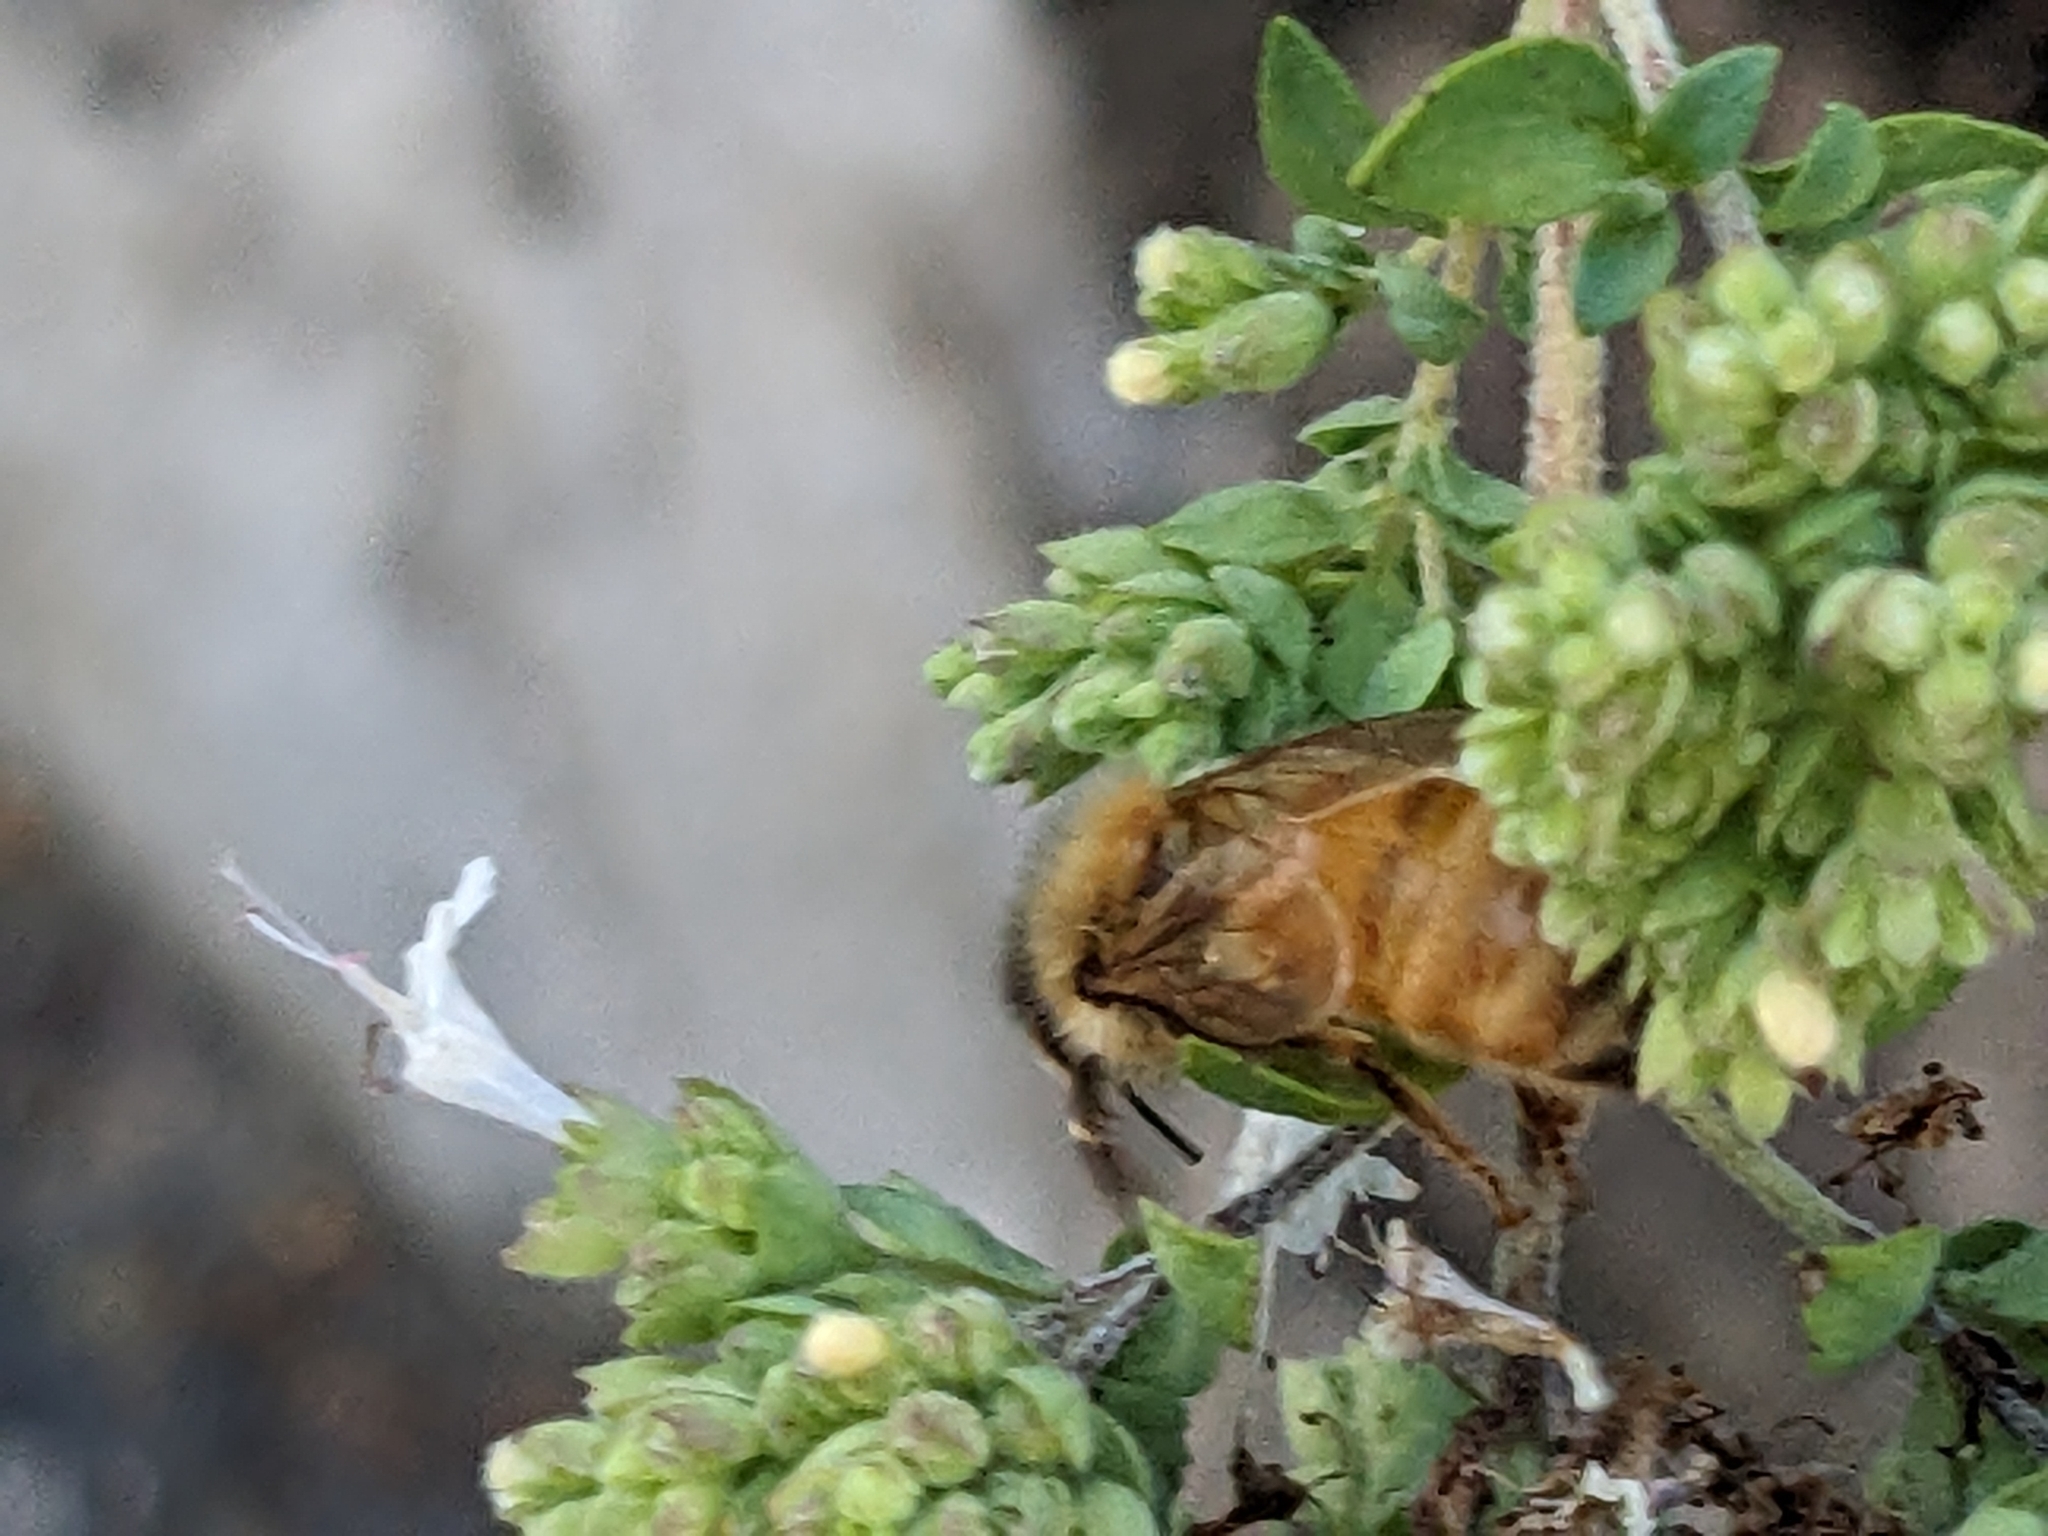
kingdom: Animalia
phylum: Arthropoda
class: Insecta
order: Hymenoptera
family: Apidae
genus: Apis
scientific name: Apis mellifera
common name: Honey bee
